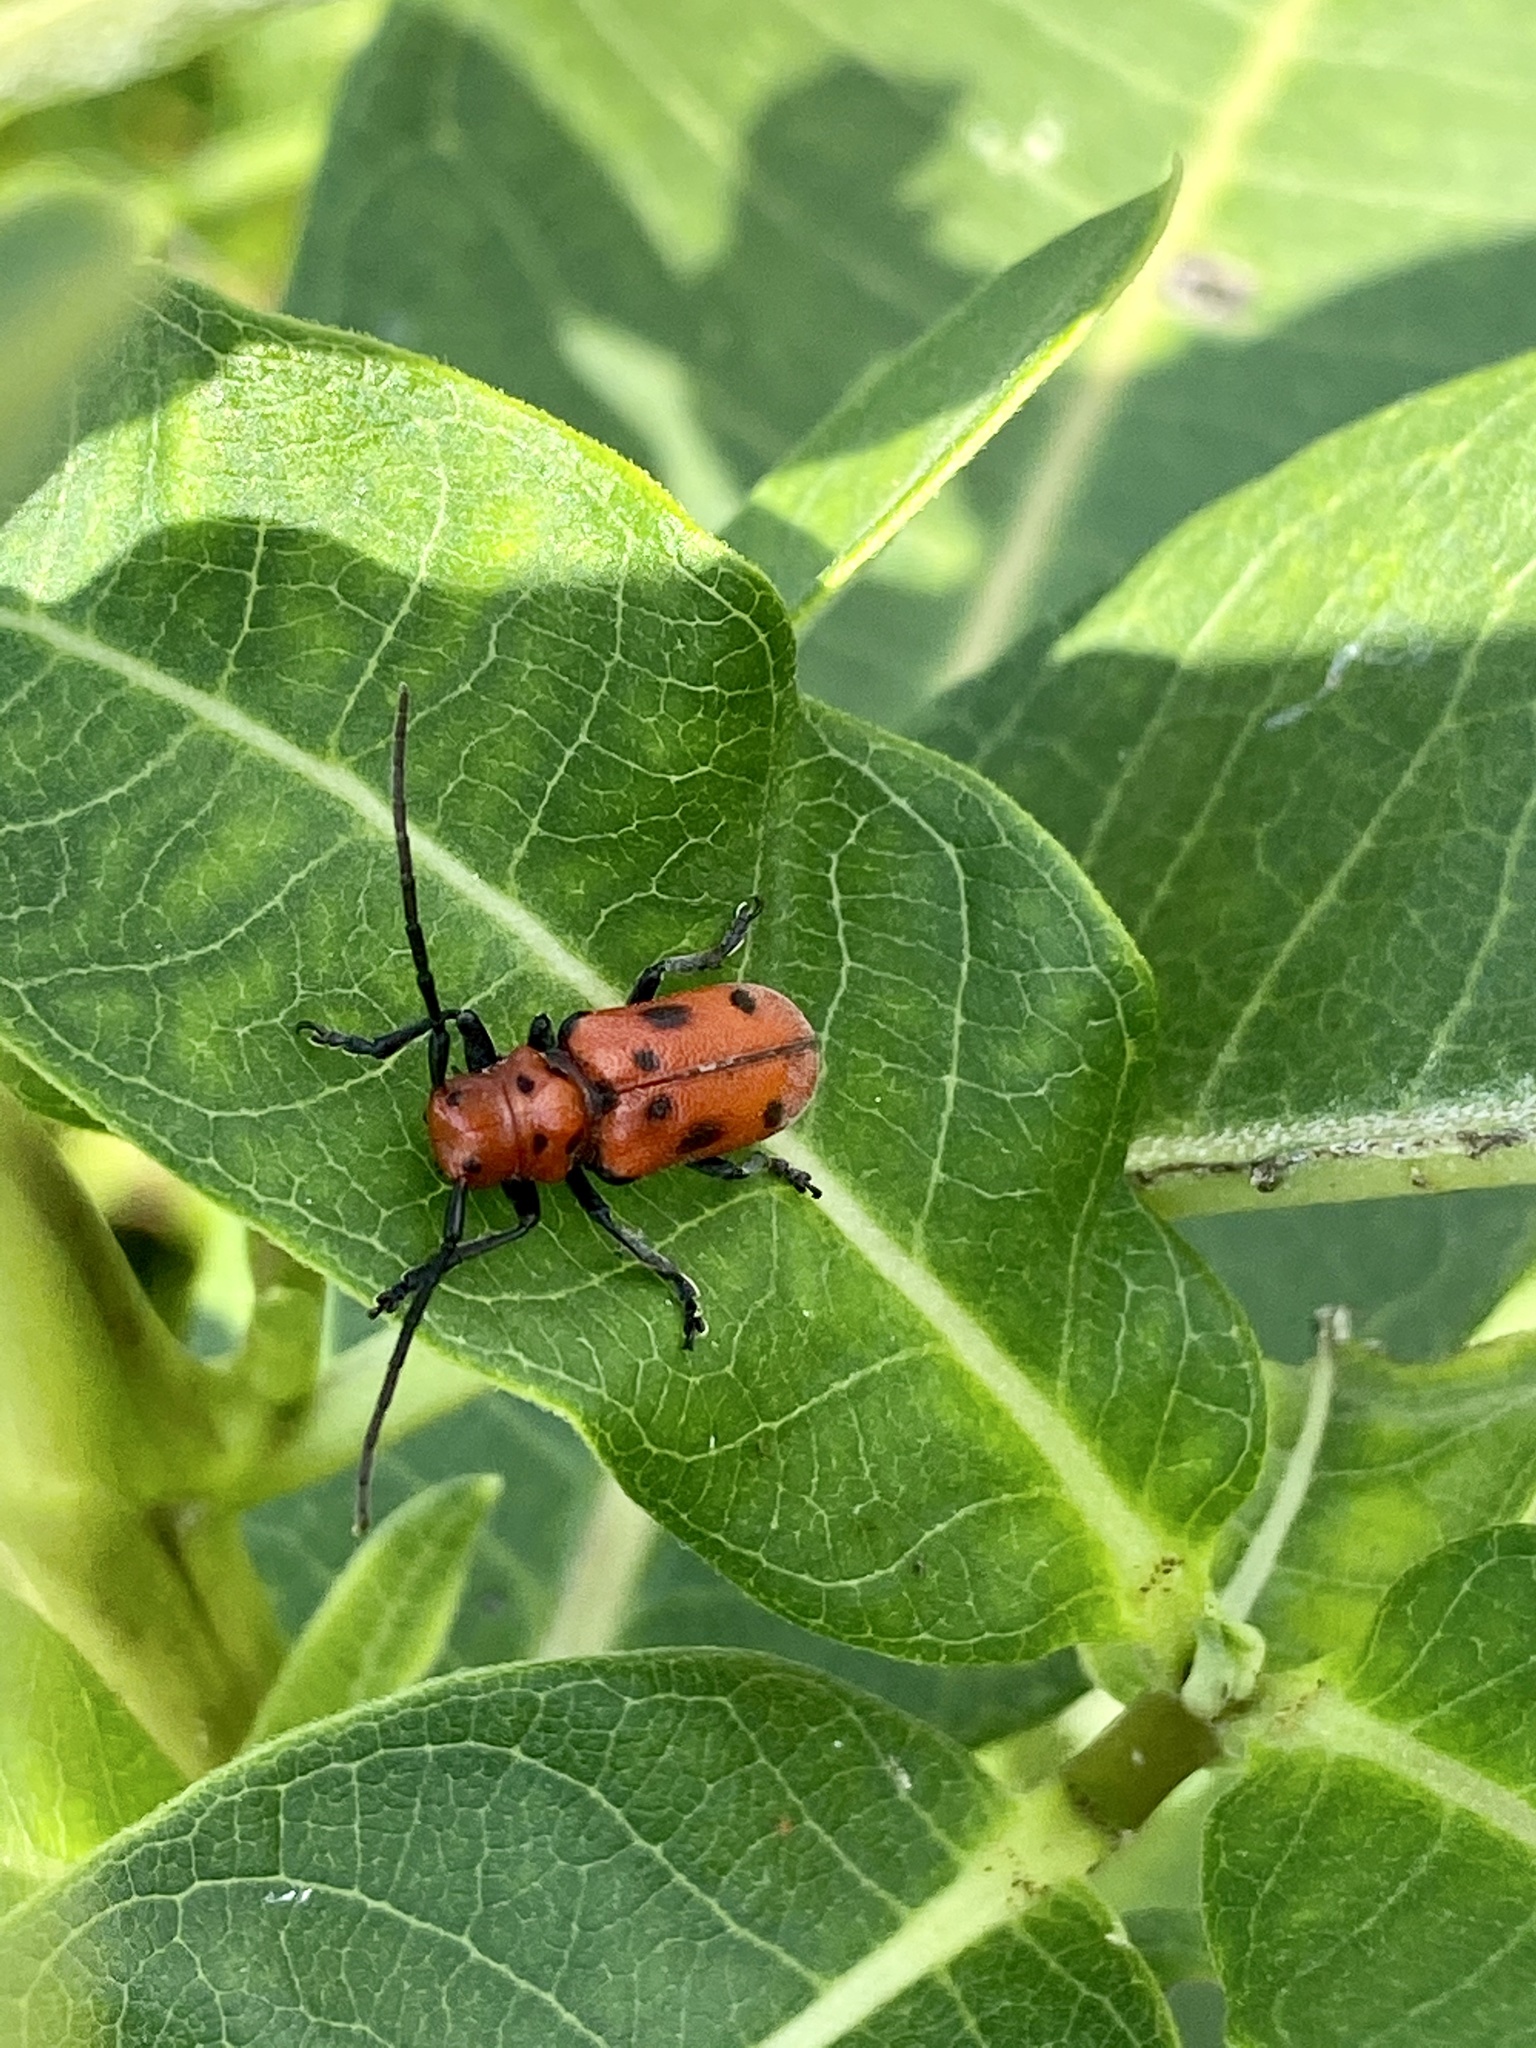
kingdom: Animalia
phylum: Arthropoda
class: Insecta
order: Coleoptera
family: Cerambycidae
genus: Tetraopes
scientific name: Tetraopes tetrophthalmus
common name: Red milkweed beetle
